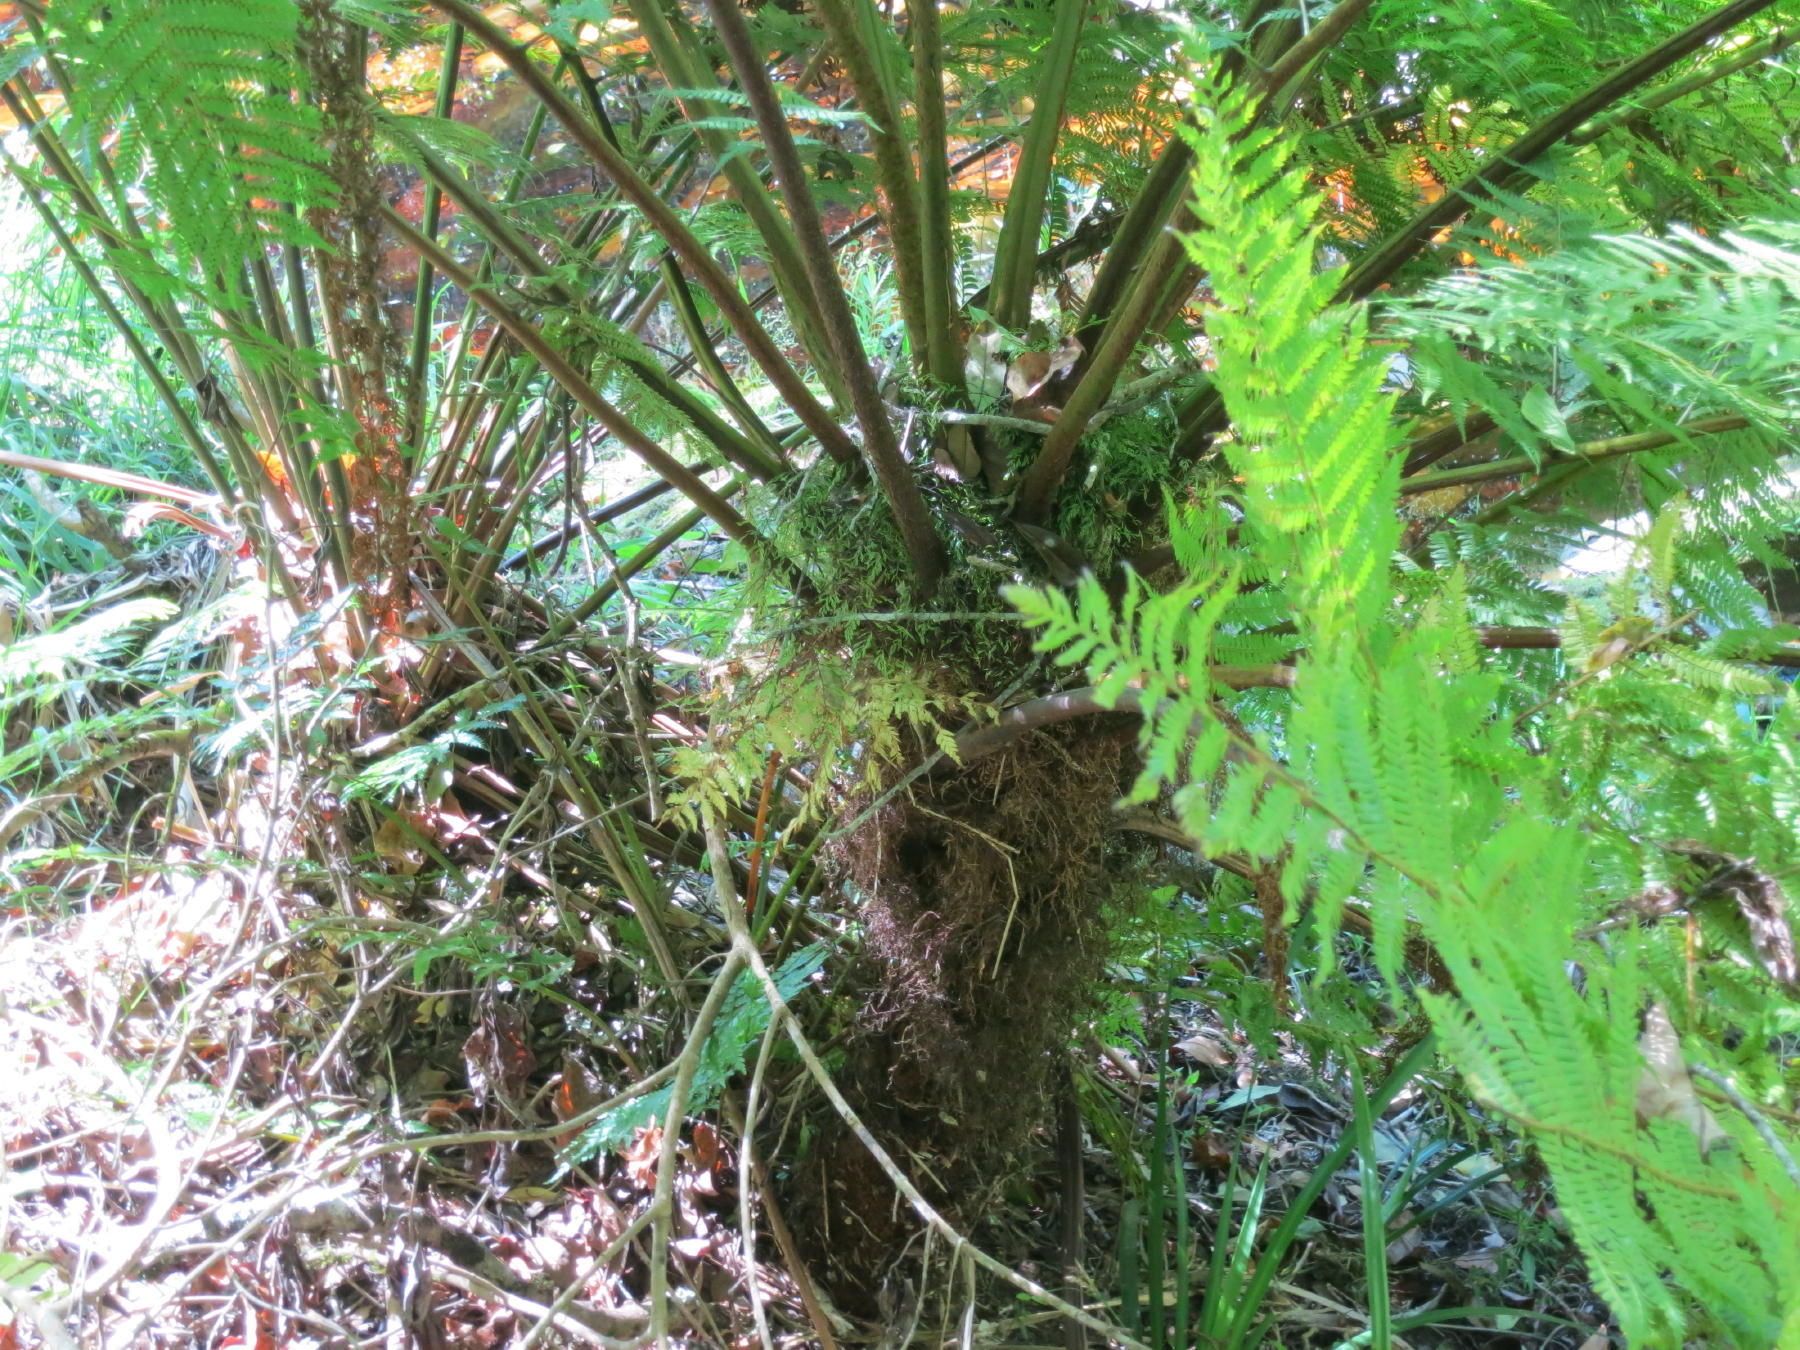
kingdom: Plantae
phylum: Tracheophyta
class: Polypodiopsida
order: Cyatheales
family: Cyatheaceae
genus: Gymnosphaera
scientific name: Gymnosphaera capensis
